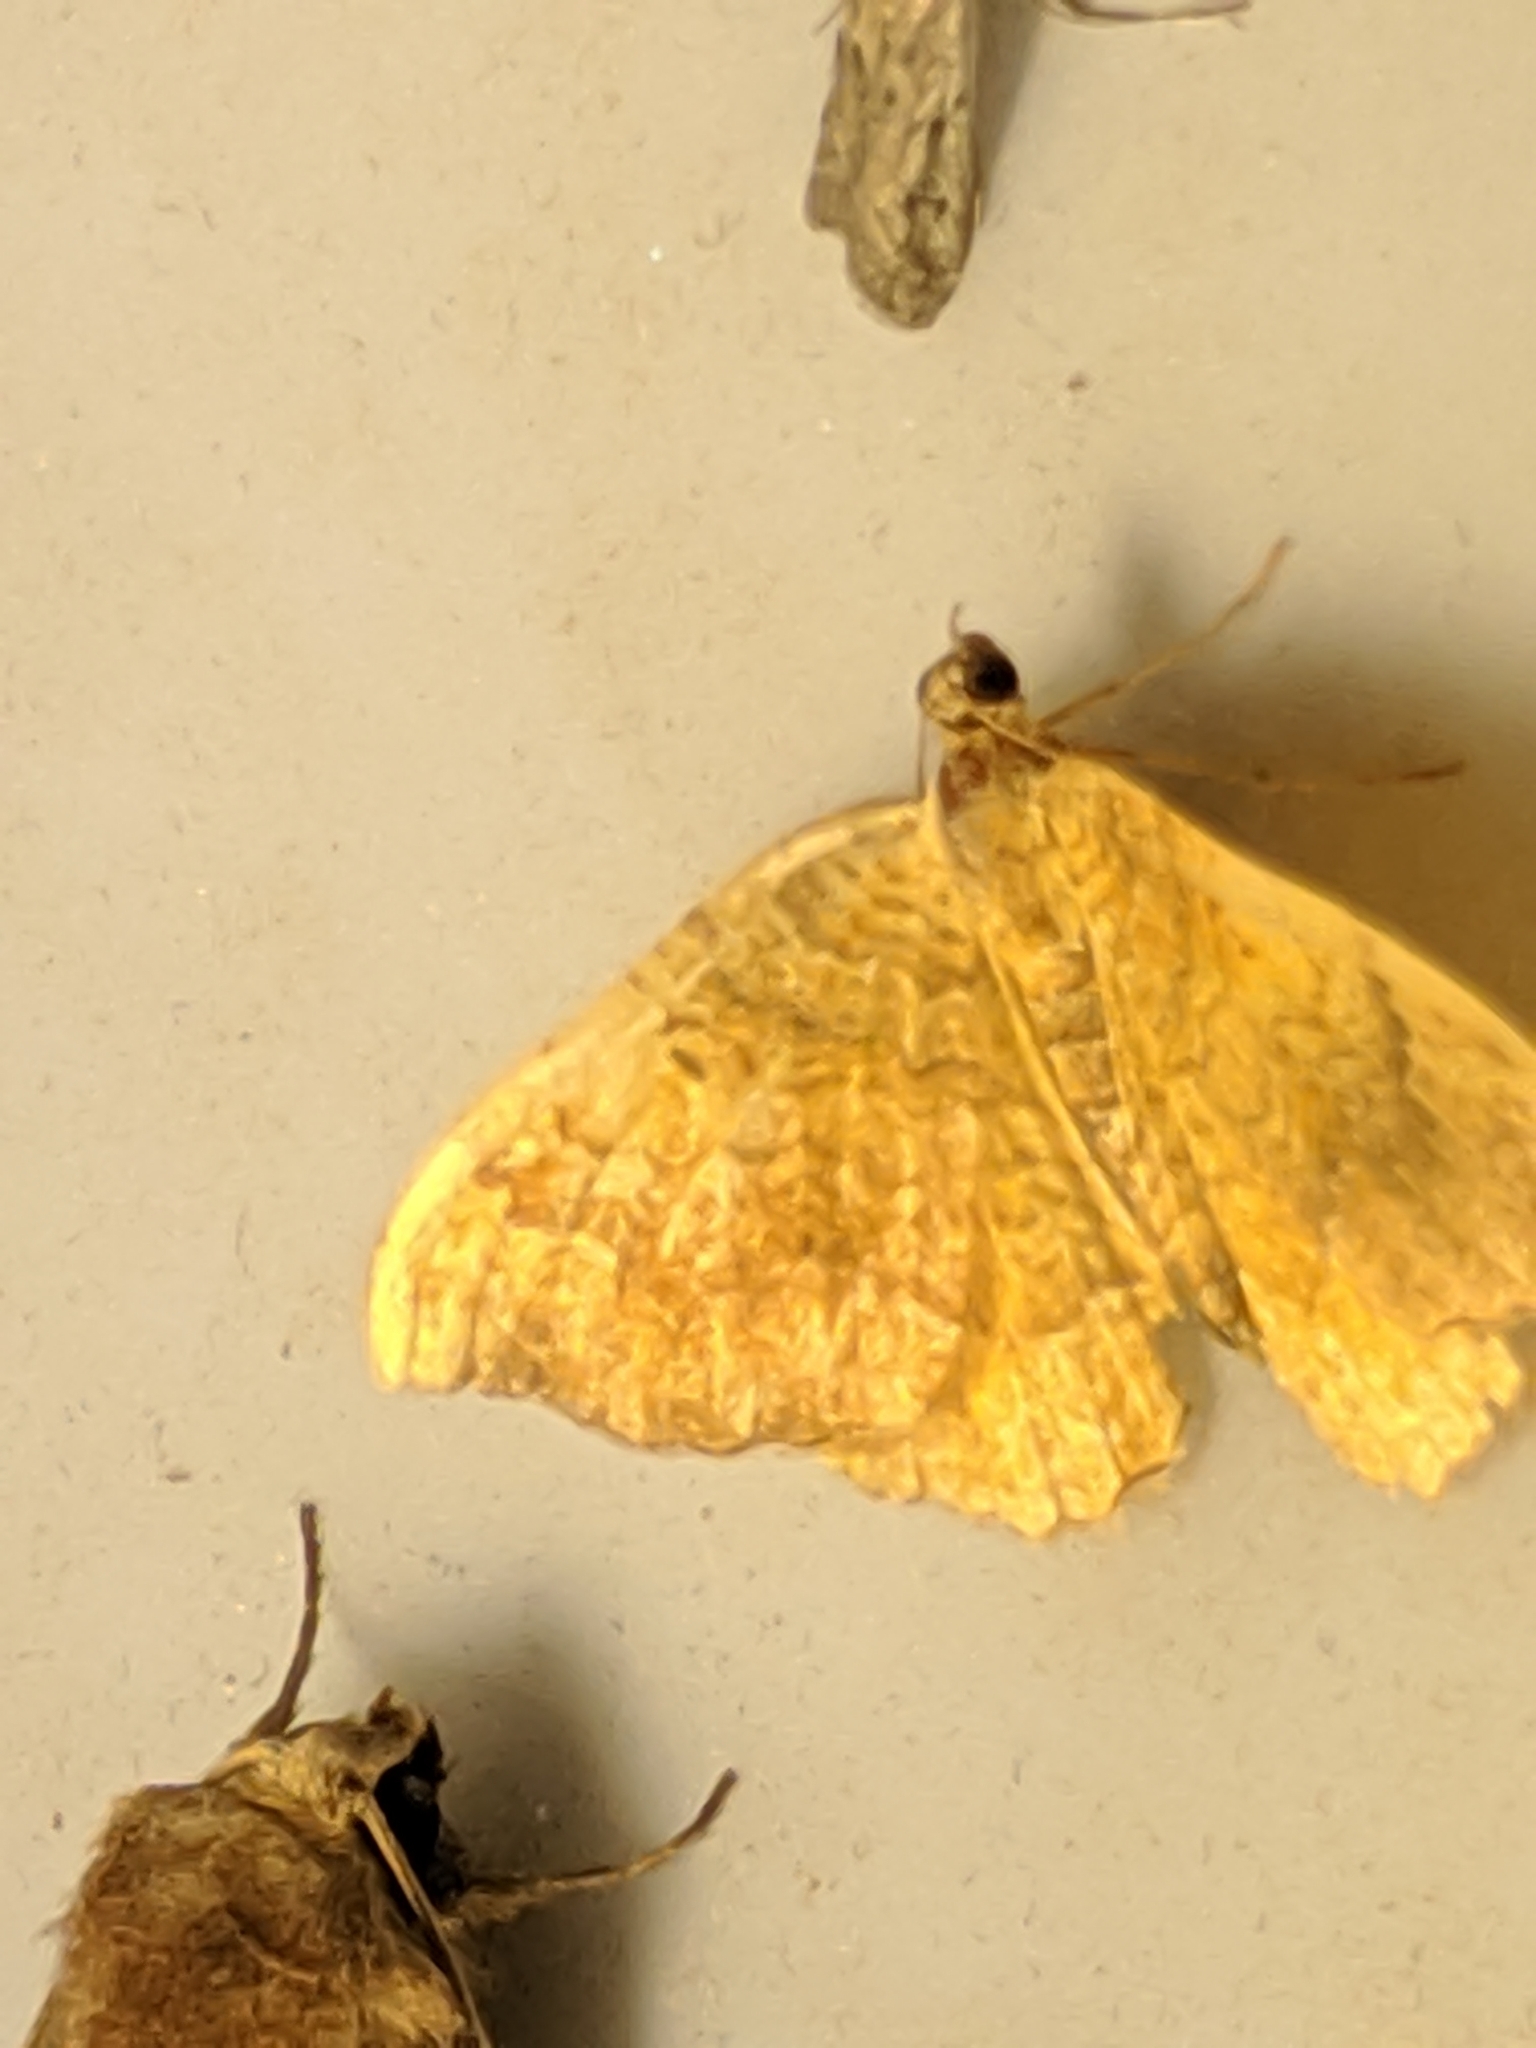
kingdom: Animalia
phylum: Arthropoda
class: Insecta
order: Lepidoptera
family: Geometridae
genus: Camptogramma
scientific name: Camptogramma bilineata
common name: Yellow shell
